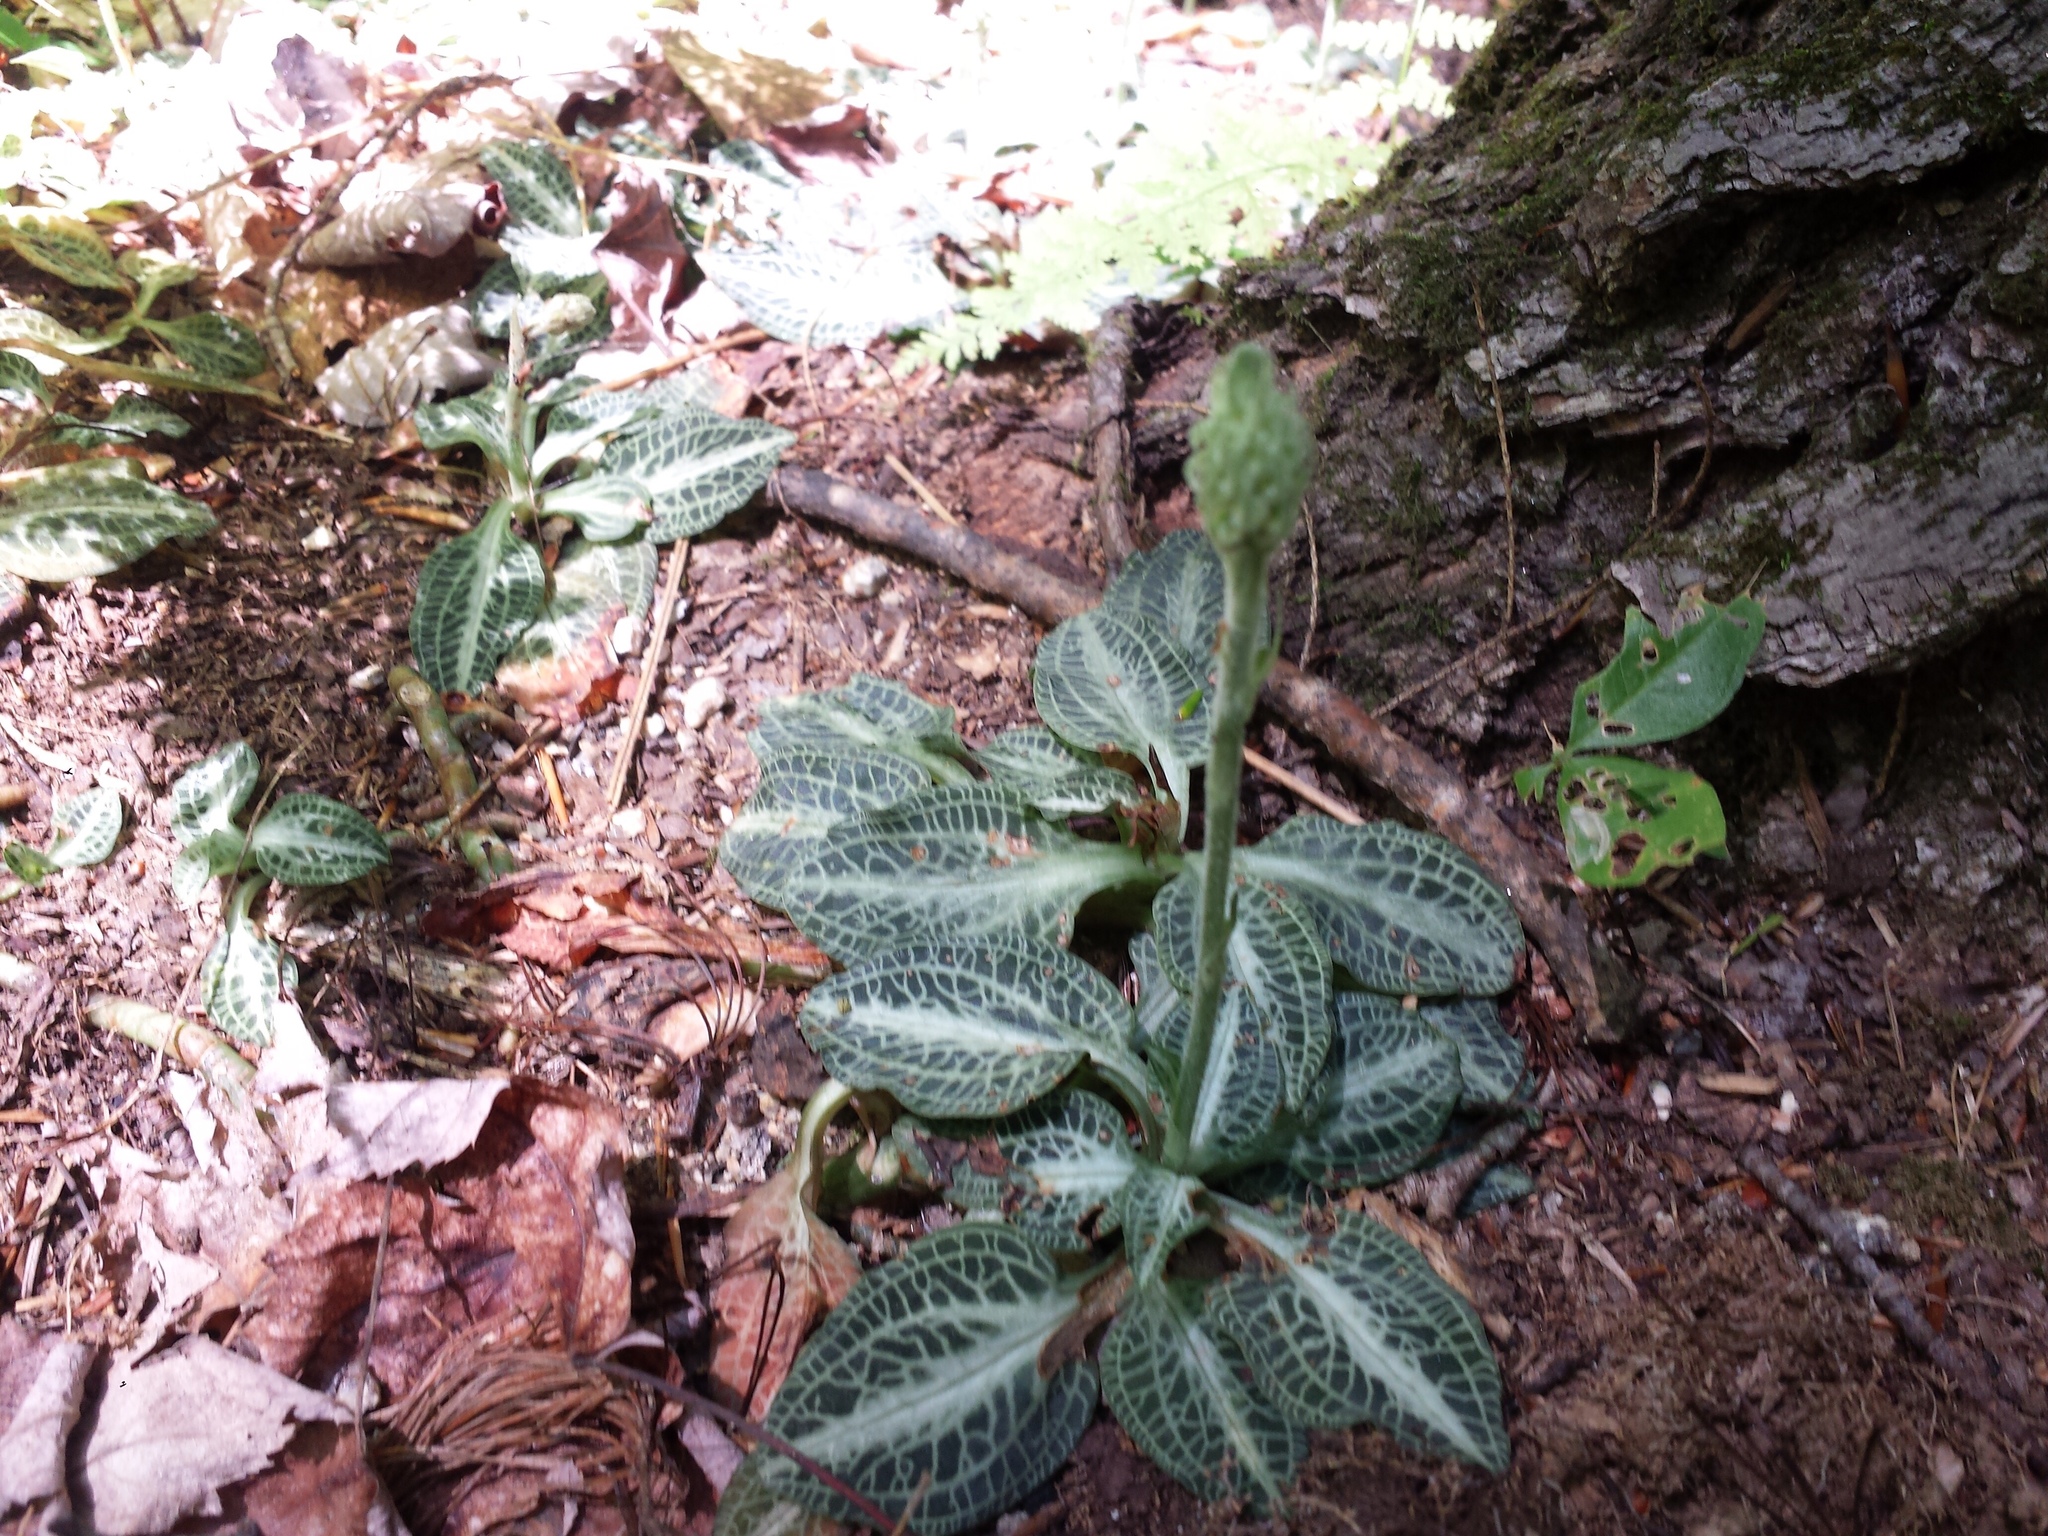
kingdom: Plantae
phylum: Tracheophyta
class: Liliopsida
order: Asparagales
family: Orchidaceae
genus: Goodyera
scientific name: Goodyera pubescens
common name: Downy rattlesnake-plantain
